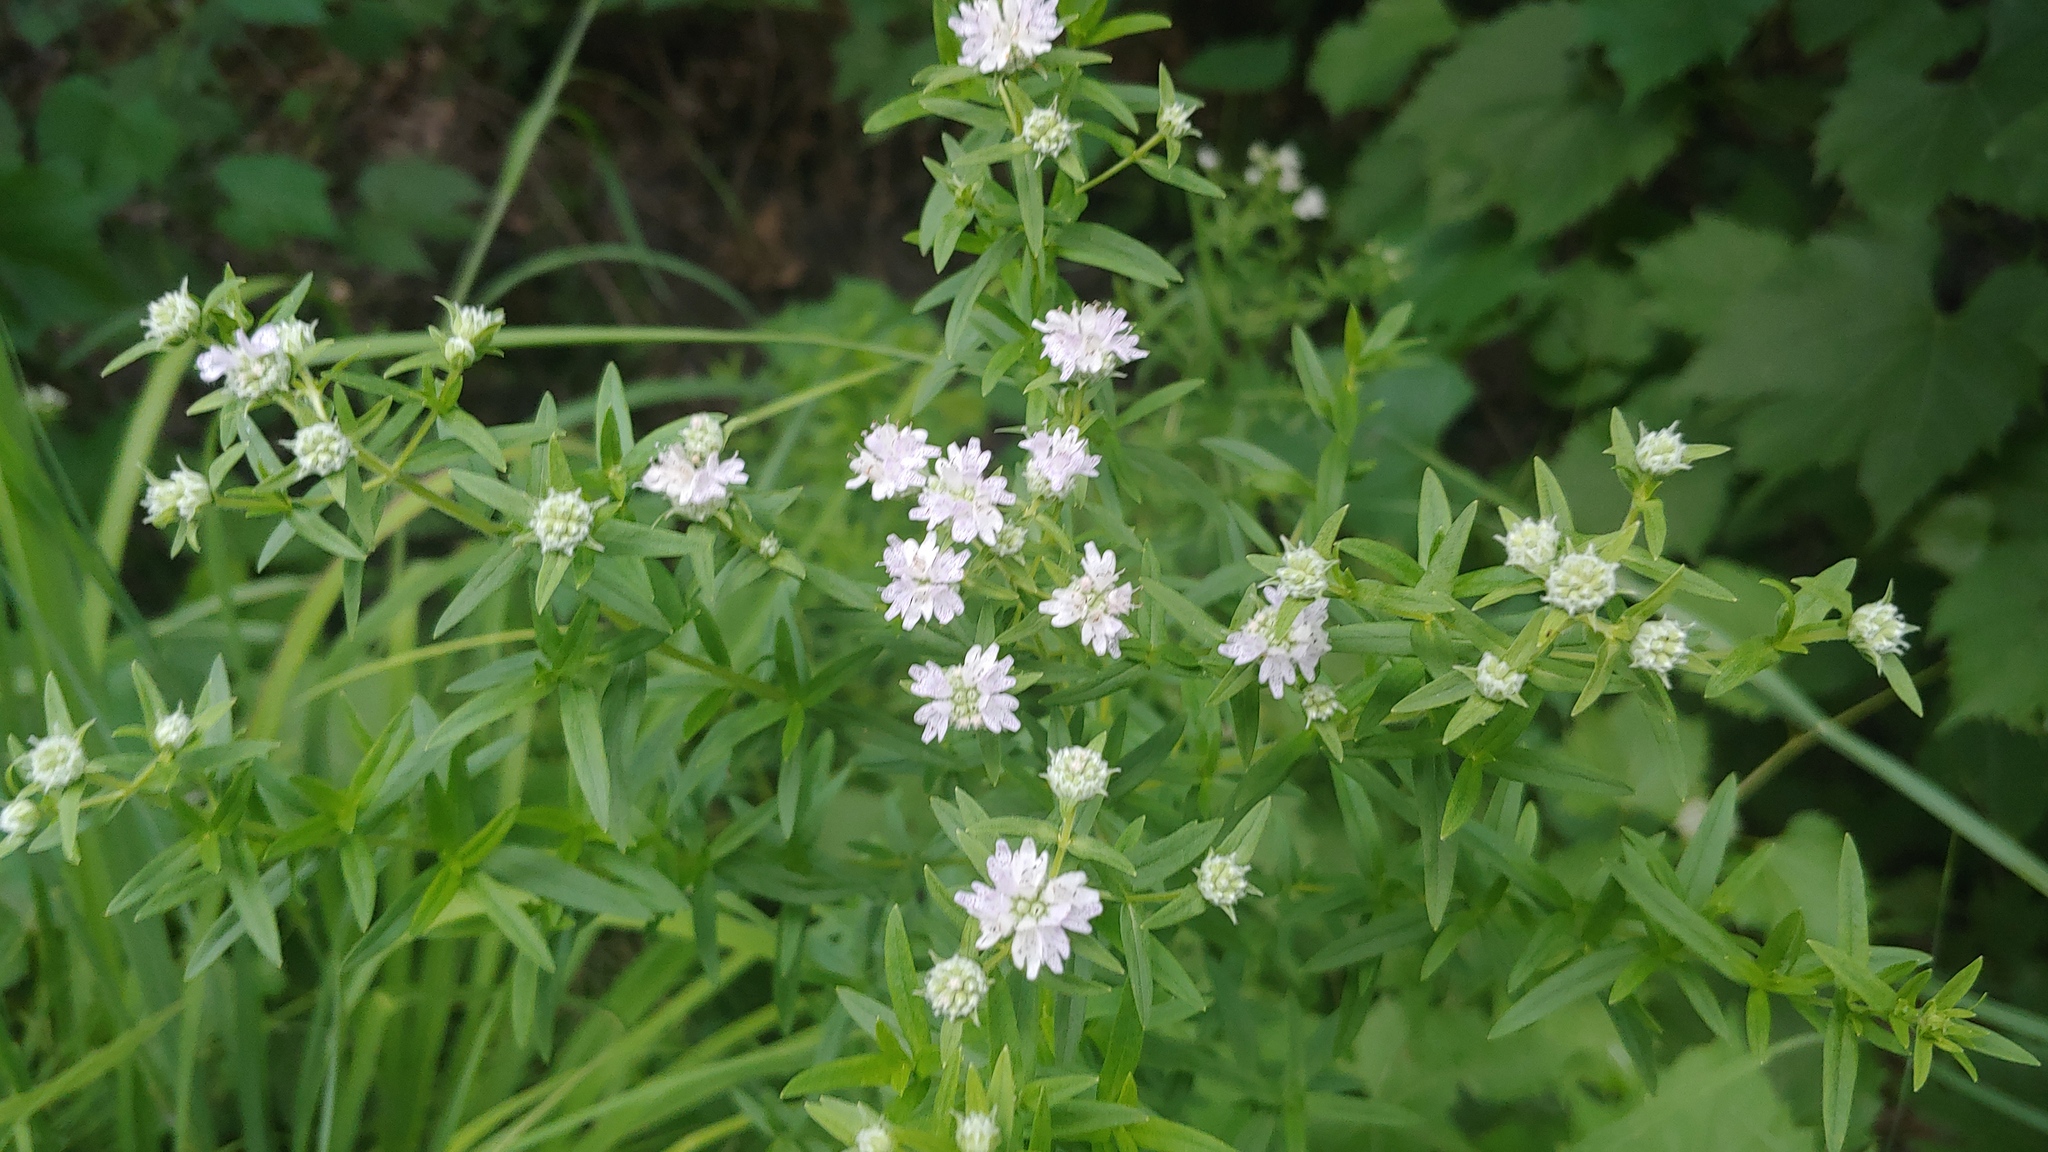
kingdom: Plantae
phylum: Tracheophyta
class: Magnoliopsida
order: Lamiales
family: Lamiaceae
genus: Pycnanthemum
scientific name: Pycnanthemum virginianum
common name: Virginia mountain-mint
